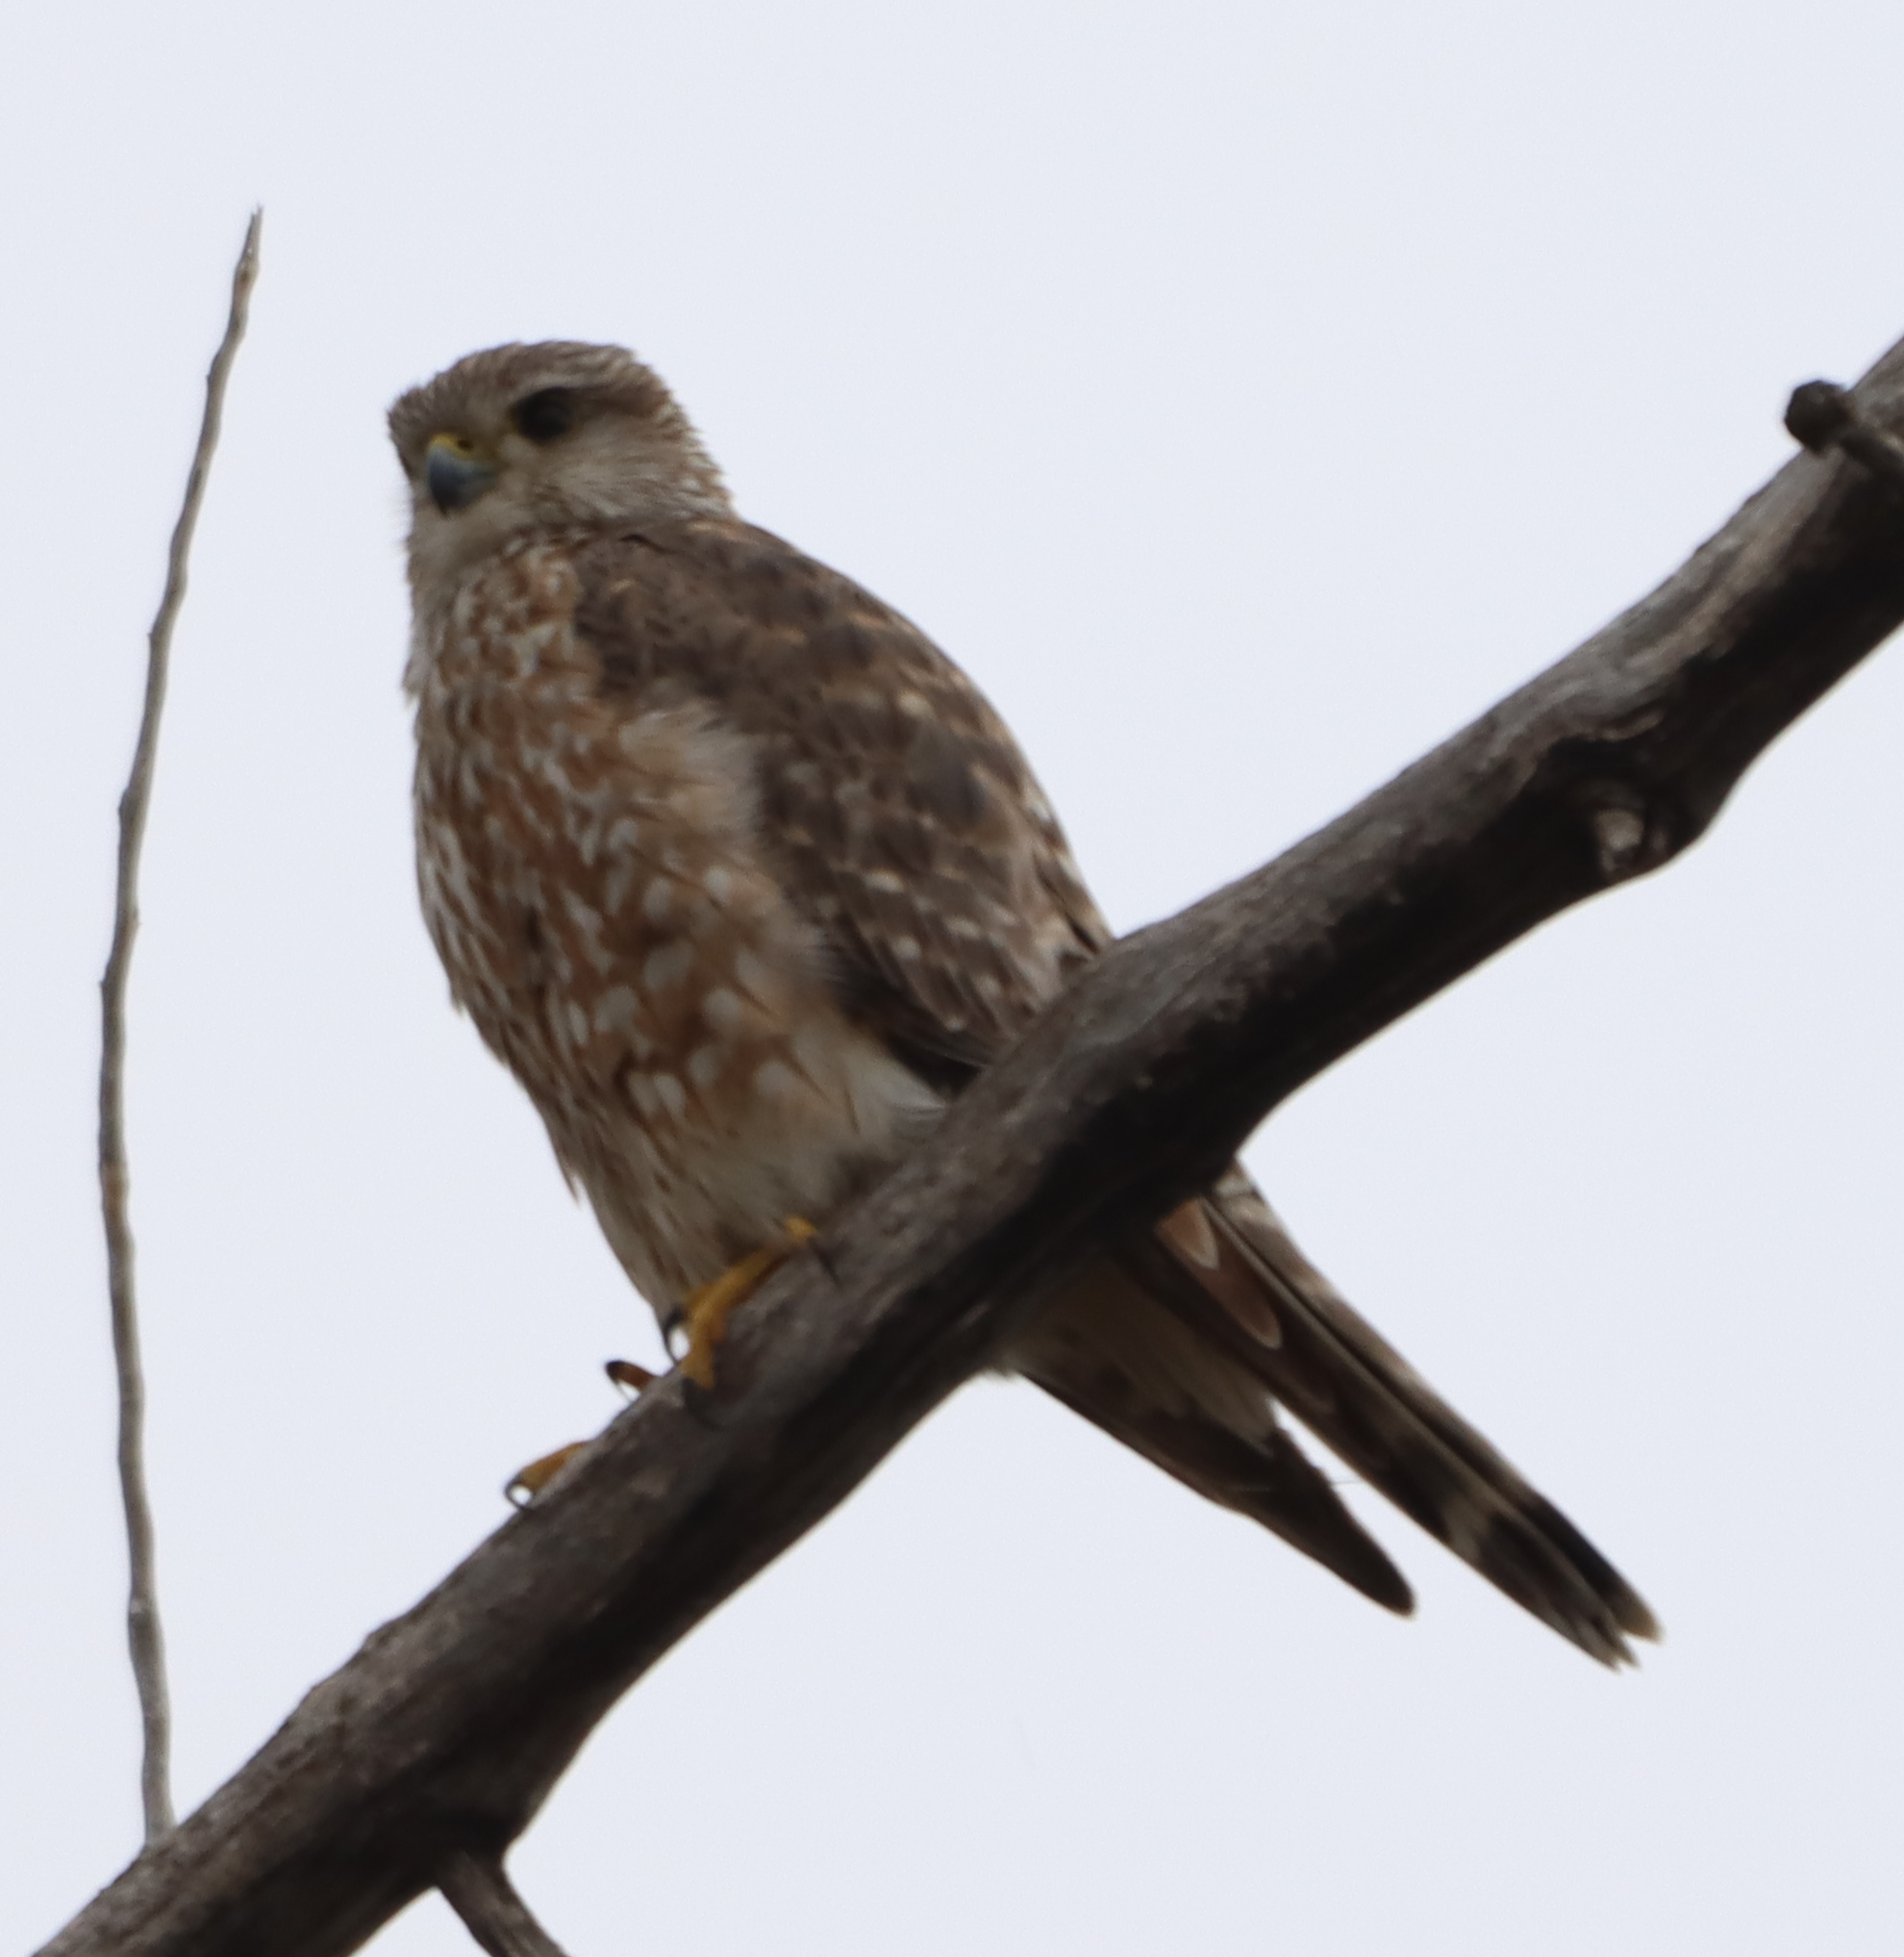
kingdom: Animalia
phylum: Chordata
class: Aves
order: Falconiformes
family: Falconidae
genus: Falco
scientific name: Falco columbarius
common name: Merlin
